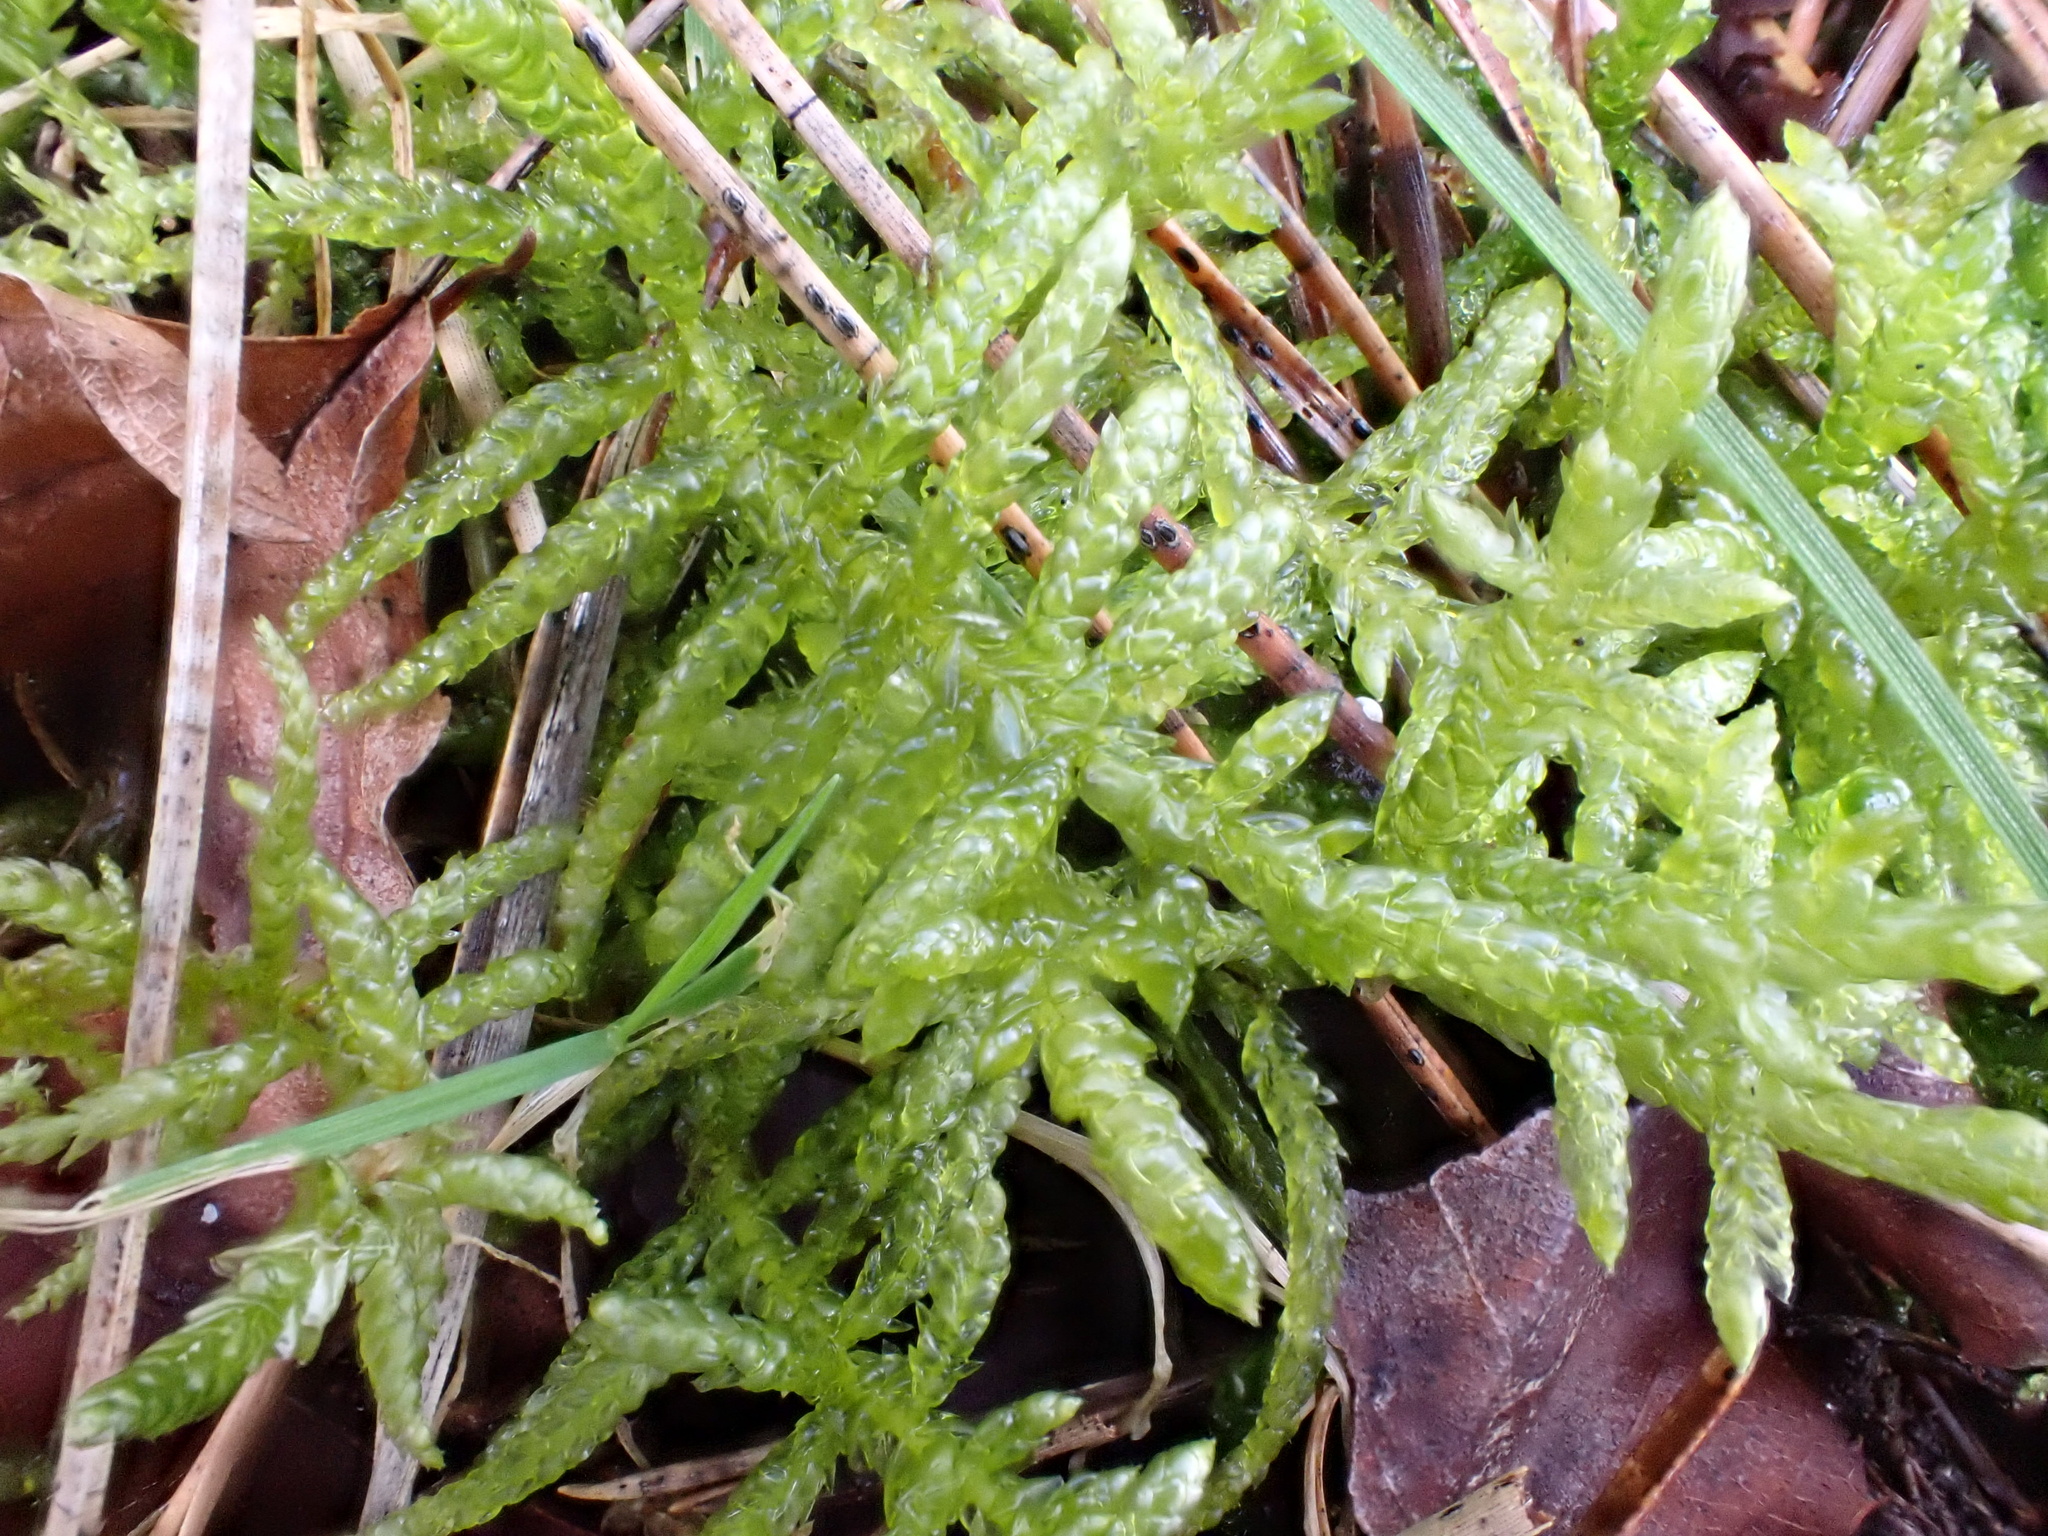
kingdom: Plantae
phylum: Bryophyta
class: Bryopsida
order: Hypnales
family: Brachytheciaceae
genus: Pseudoscleropodium
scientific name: Pseudoscleropodium purum
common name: Neat feather-moss
